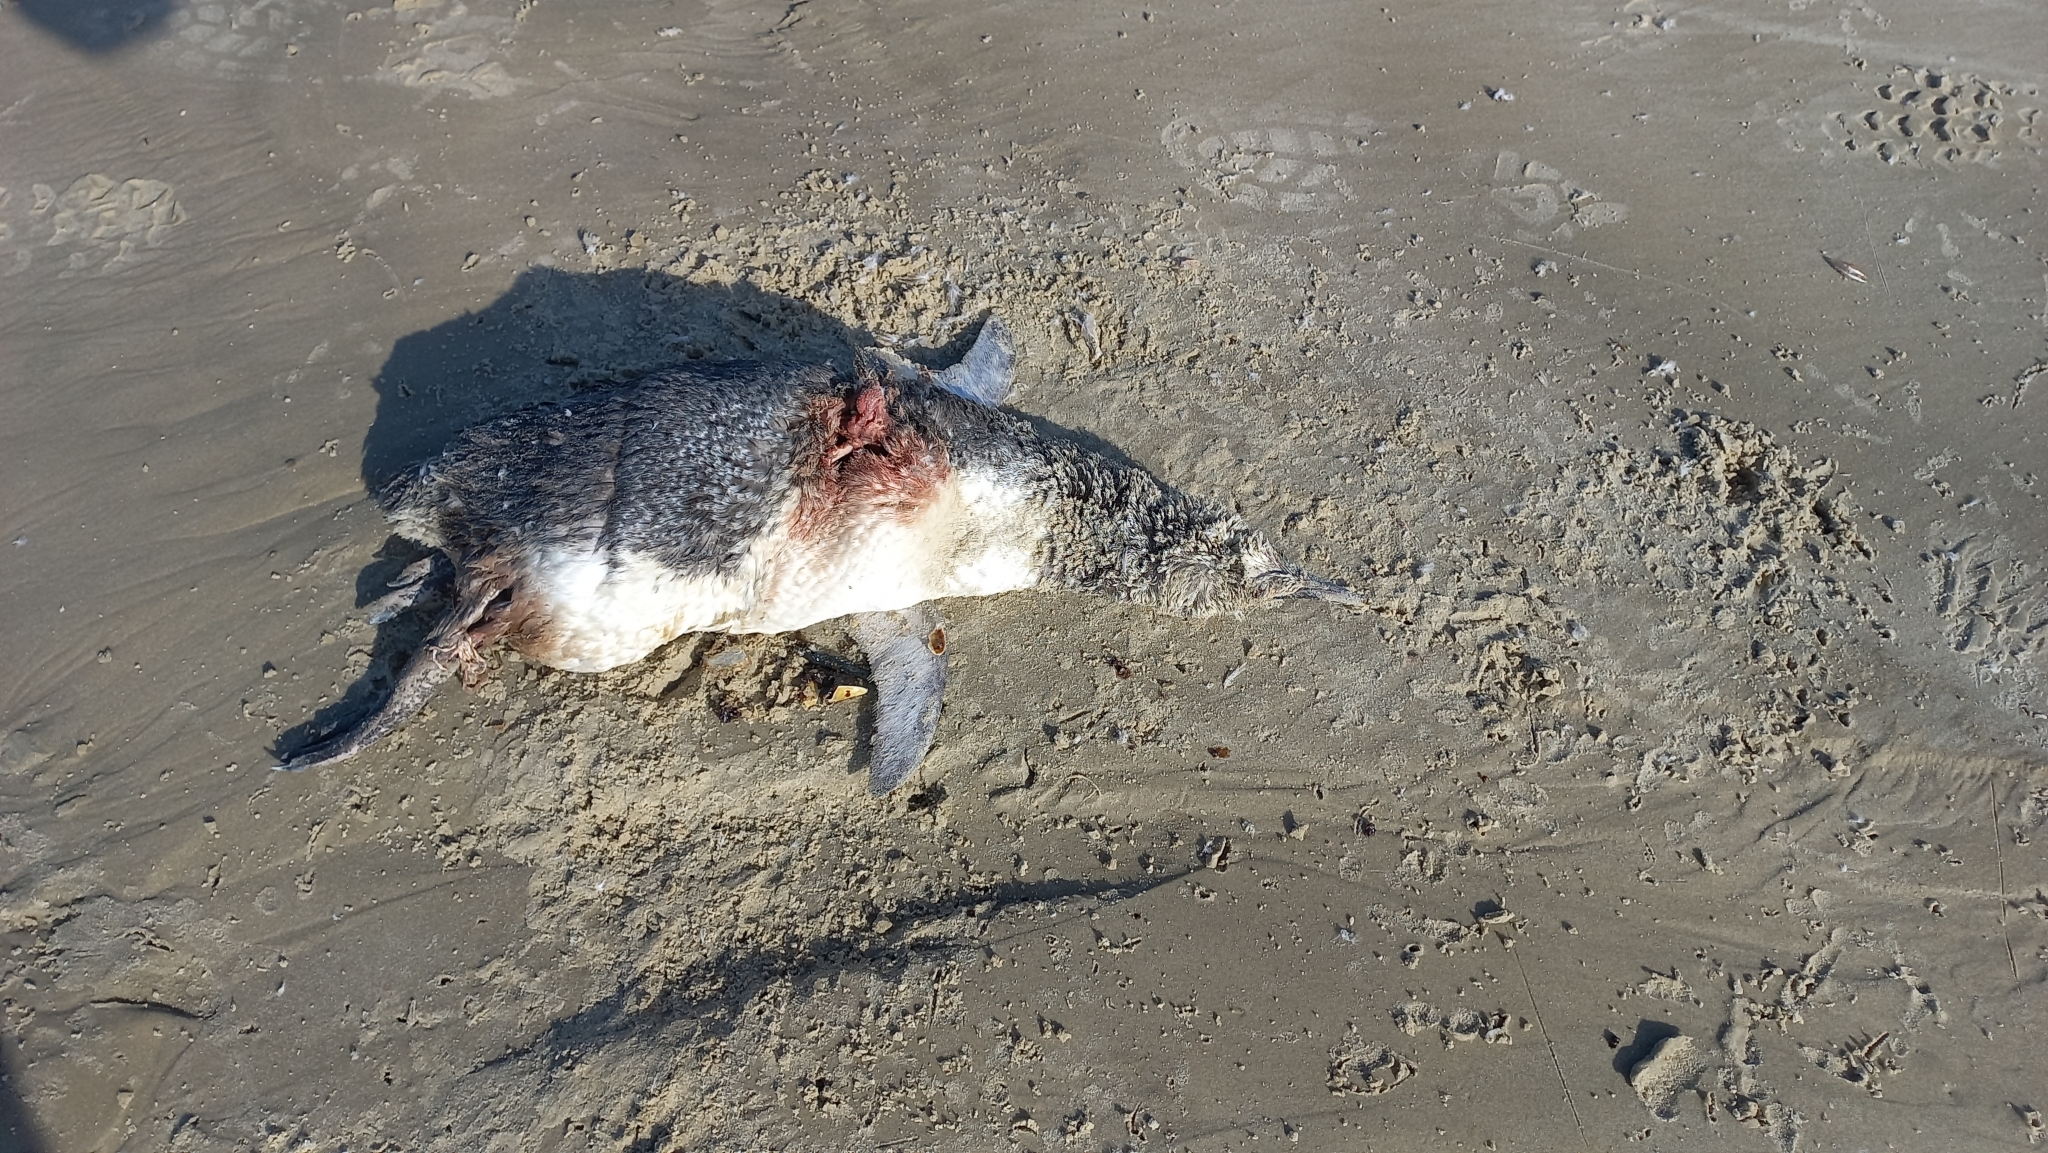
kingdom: Animalia
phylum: Chordata
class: Aves
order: Sphenisciformes
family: Spheniscidae
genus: Spheniscus
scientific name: Spheniscus magellanicus
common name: Magellanic penguin
